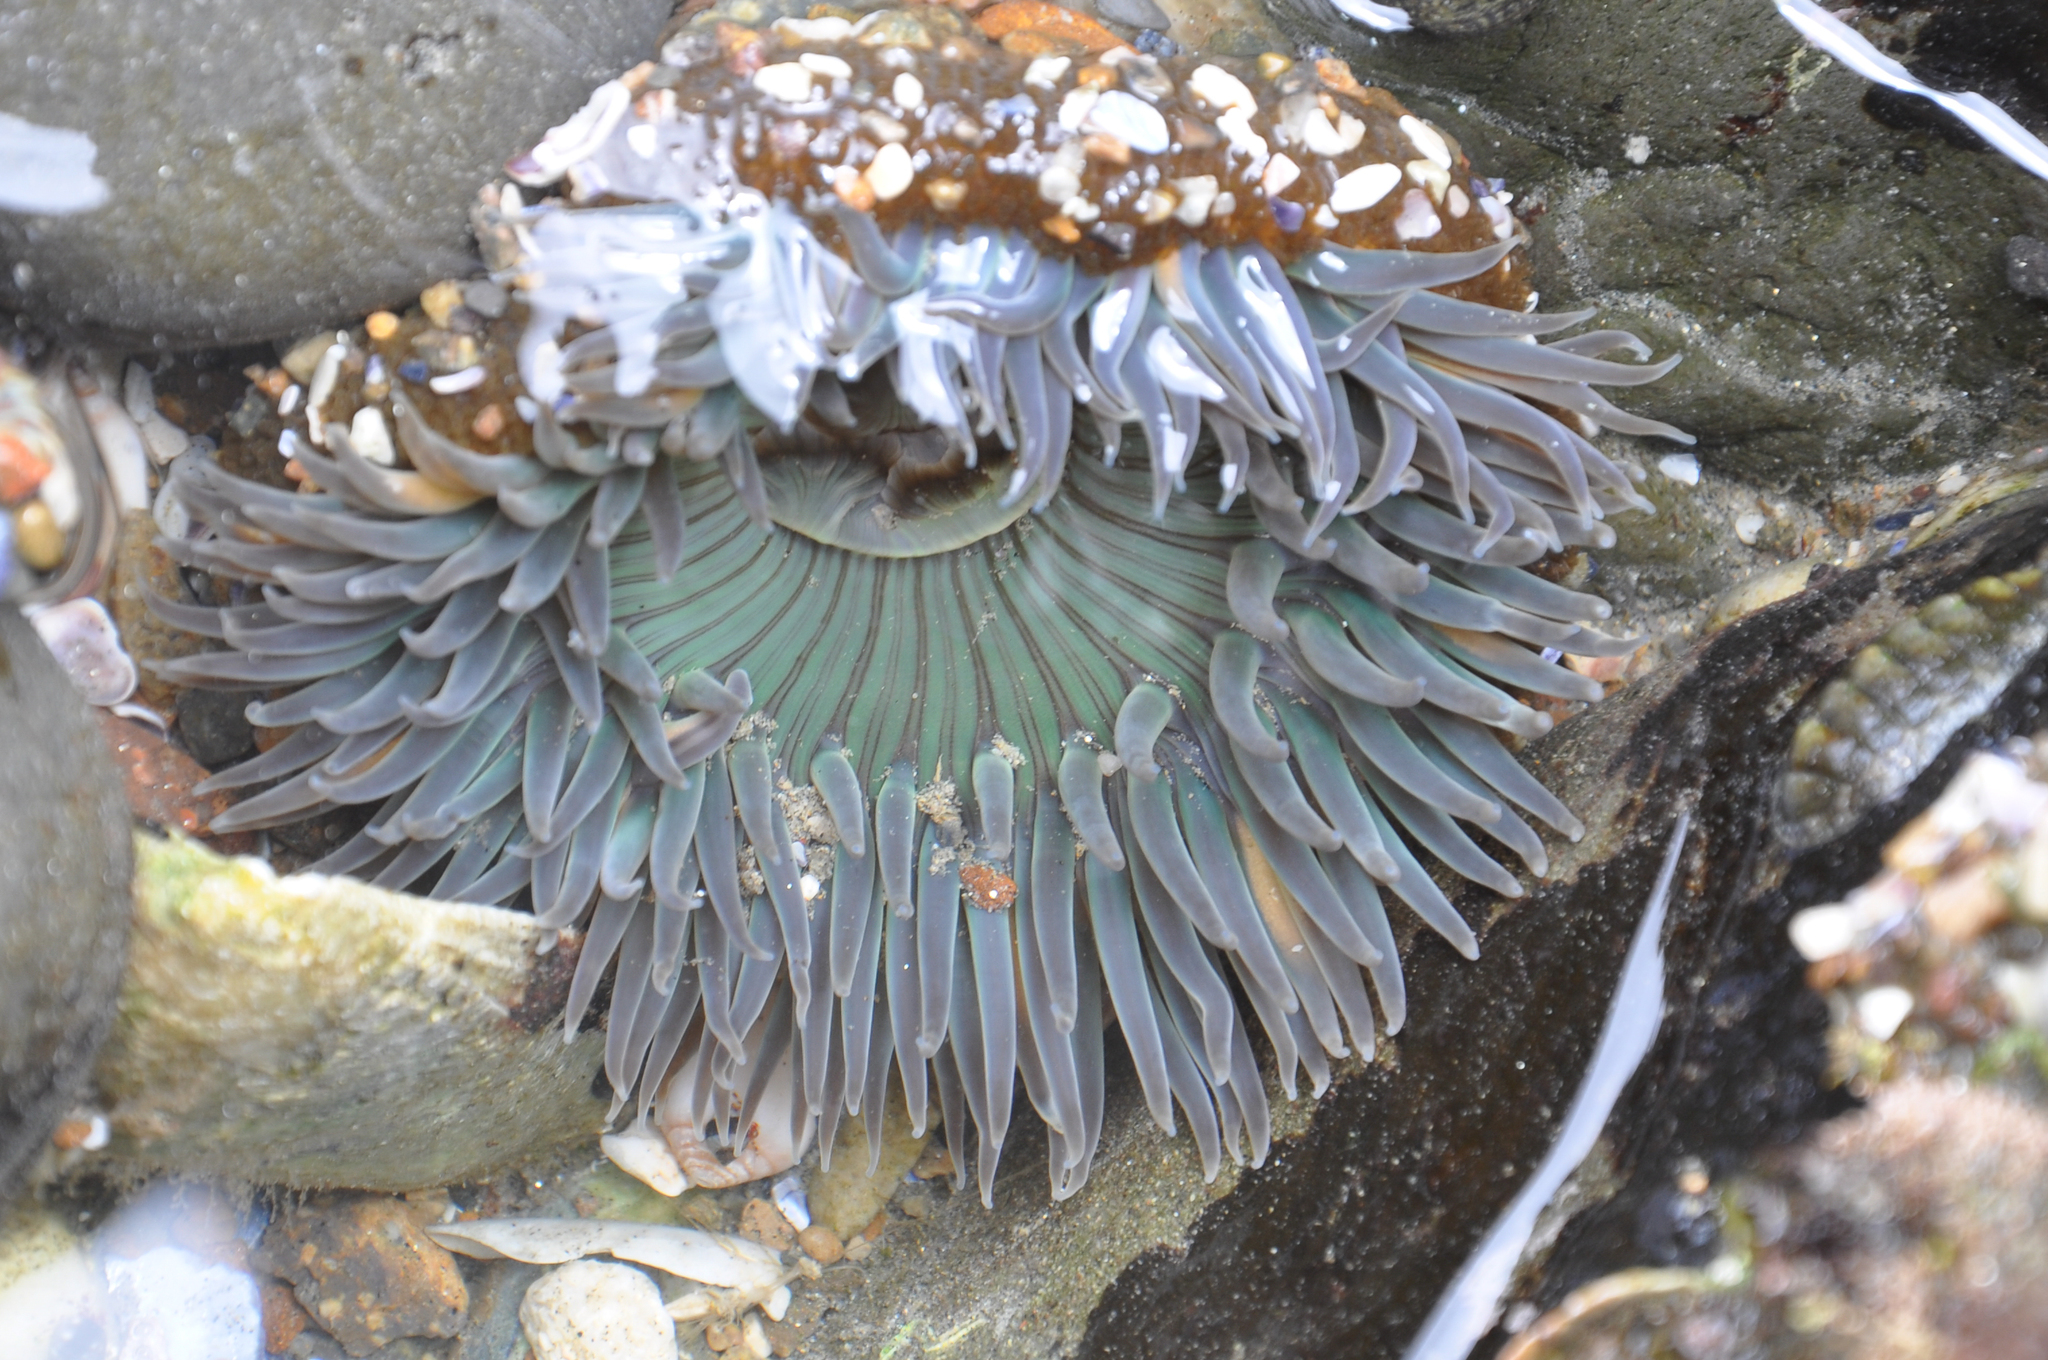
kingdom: Animalia
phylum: Cnidaria
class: Anthozoa
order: Actiniaria
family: Actiniidae
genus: Anthopleura
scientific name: Anthopleura sola
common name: Sun anemone
